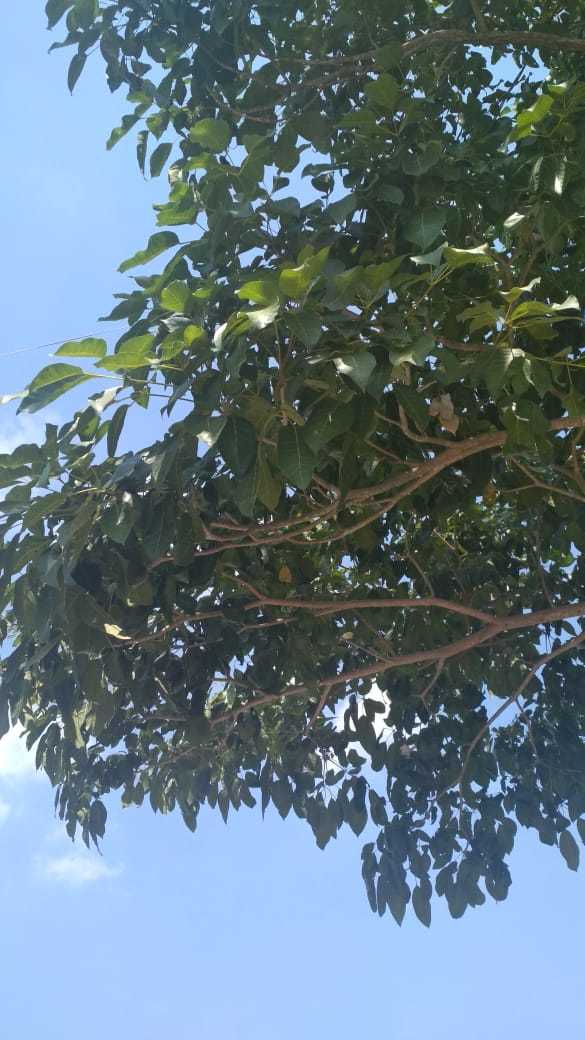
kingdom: Plantae
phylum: Tracheophyta
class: Magnoliopsida
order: Lamiales
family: Bignoniaceae
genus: Tabebuia
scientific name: Tabebuia rosea
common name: Pink poui
